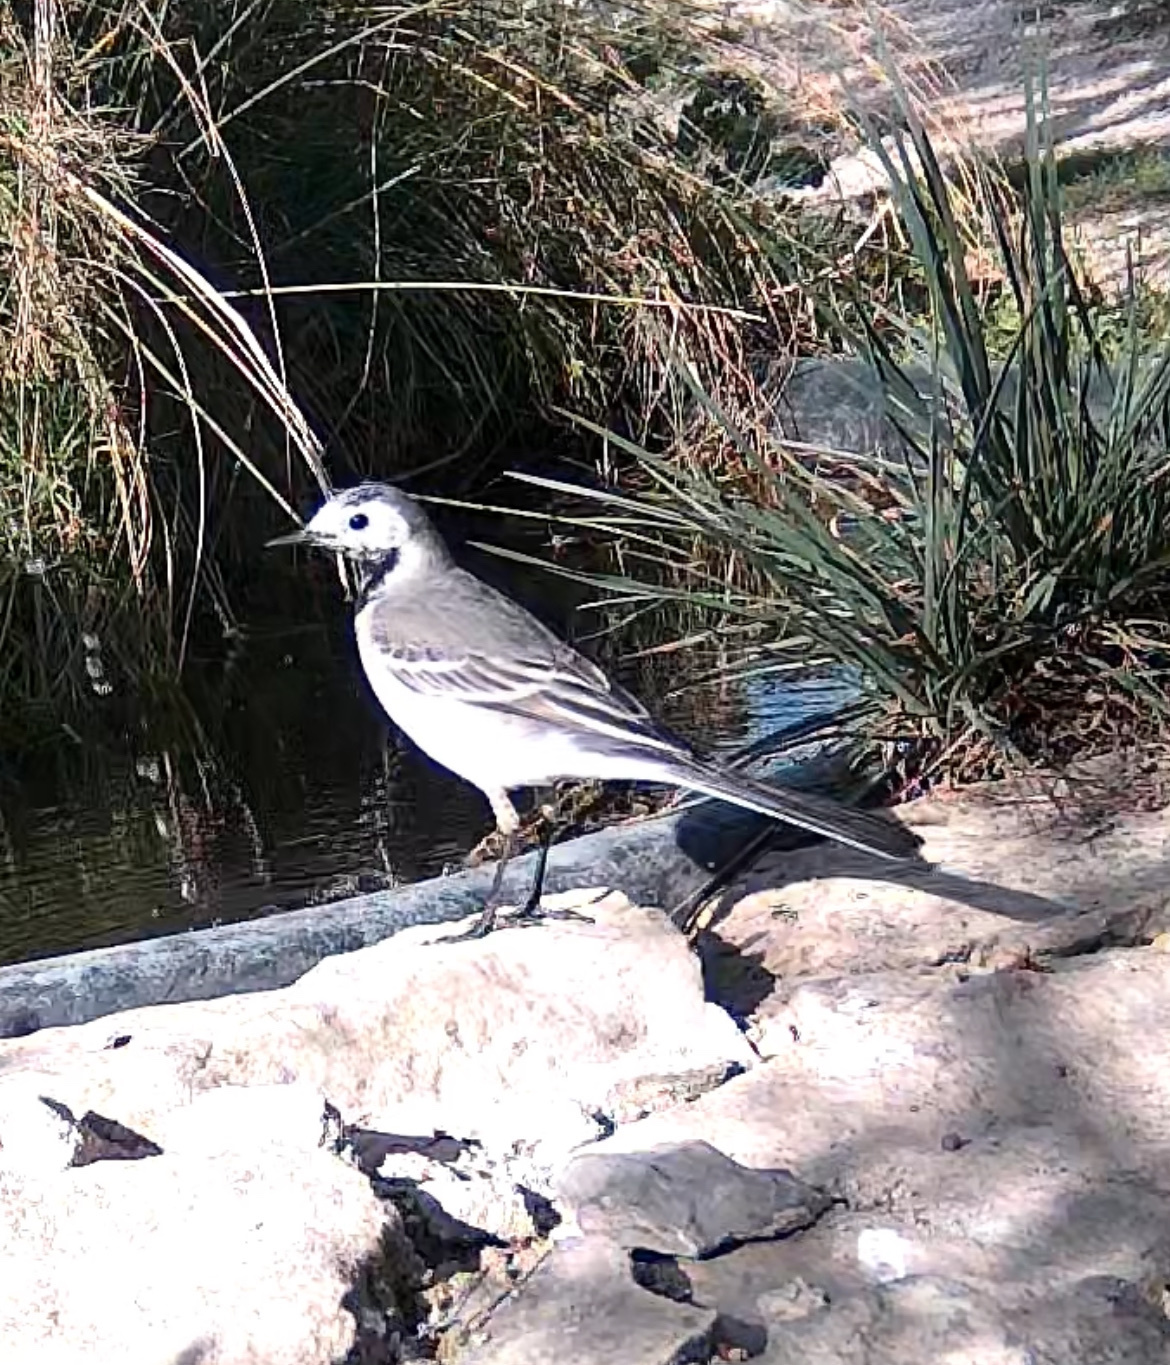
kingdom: Animalia
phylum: Chordata
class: Aves
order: Passeriformes
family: Motacillidae
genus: Motacilla
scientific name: Motacilla alba
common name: White wagtail
